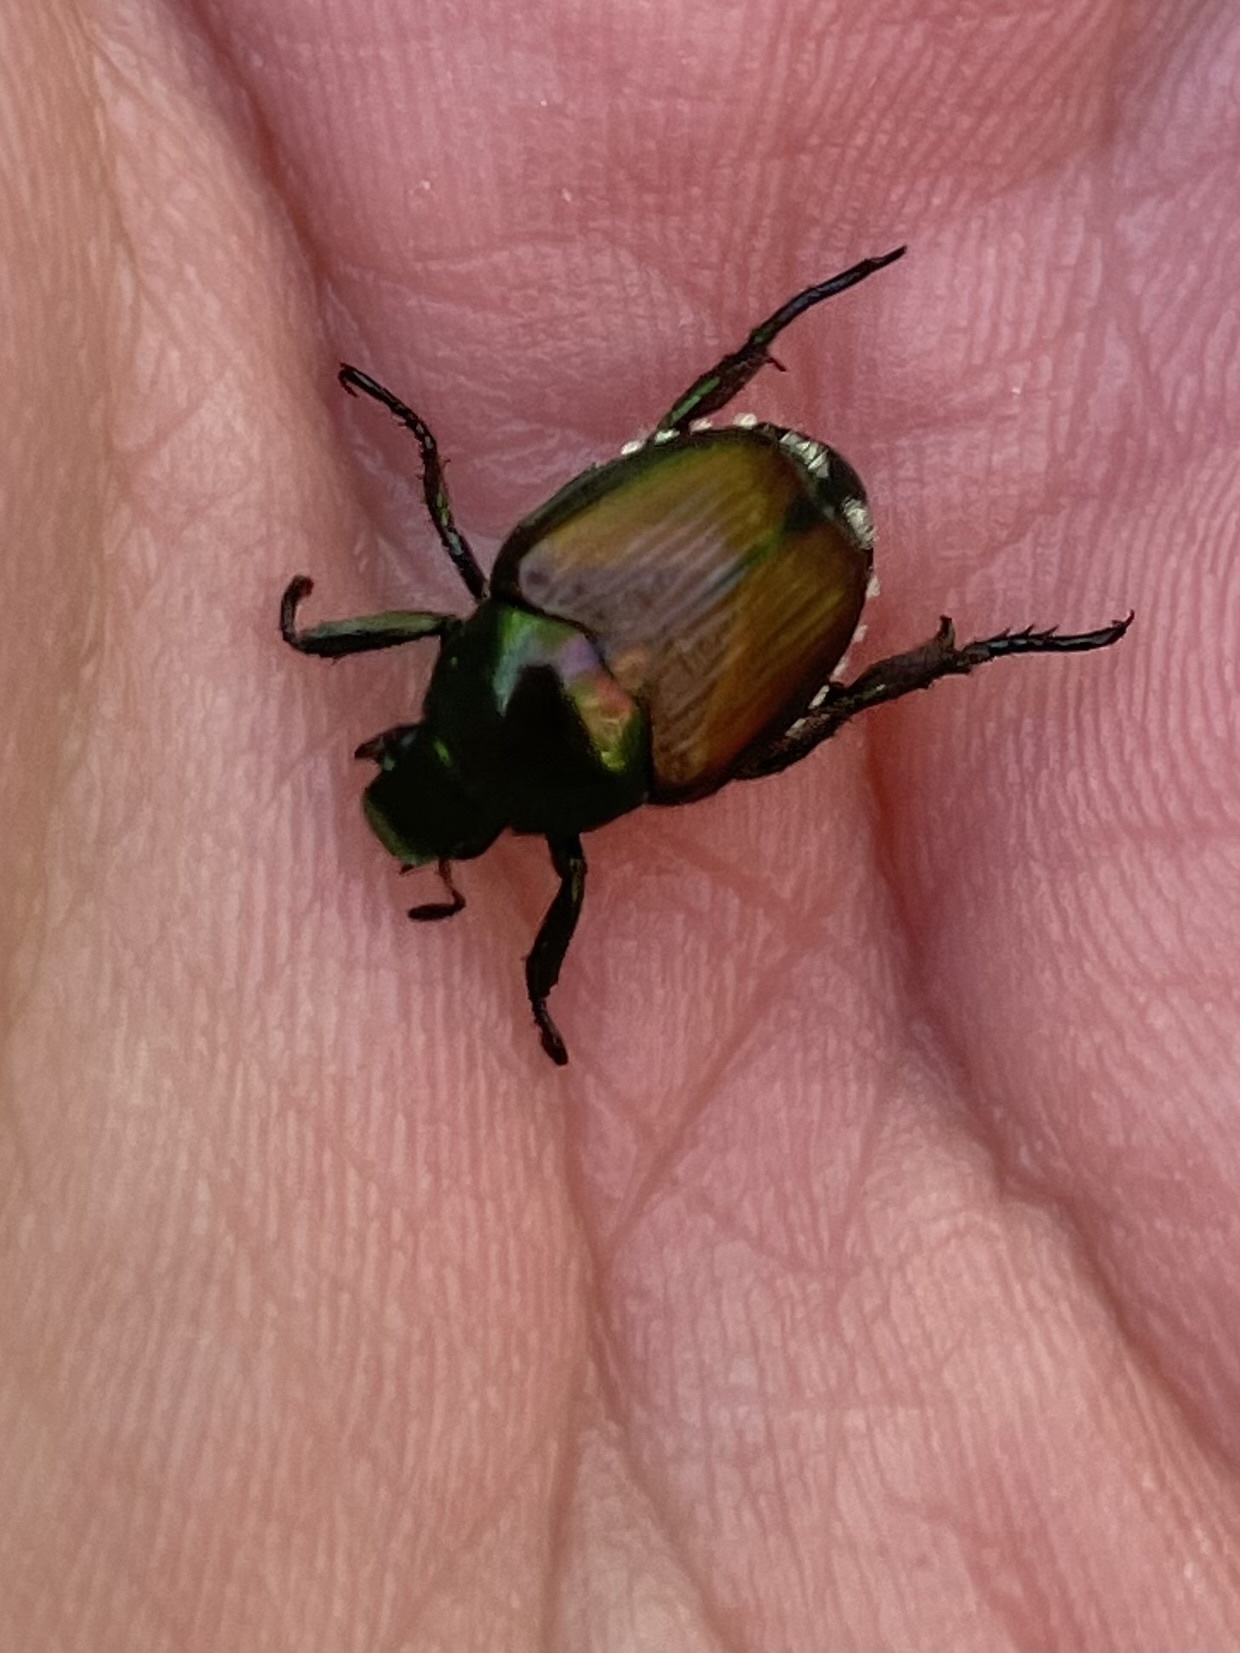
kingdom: Animalia
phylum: Arthropoda
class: Insecta
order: Coleoptera
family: Scarabaeidae
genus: Popillia
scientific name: Popillia japonica
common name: Japanese beetle
